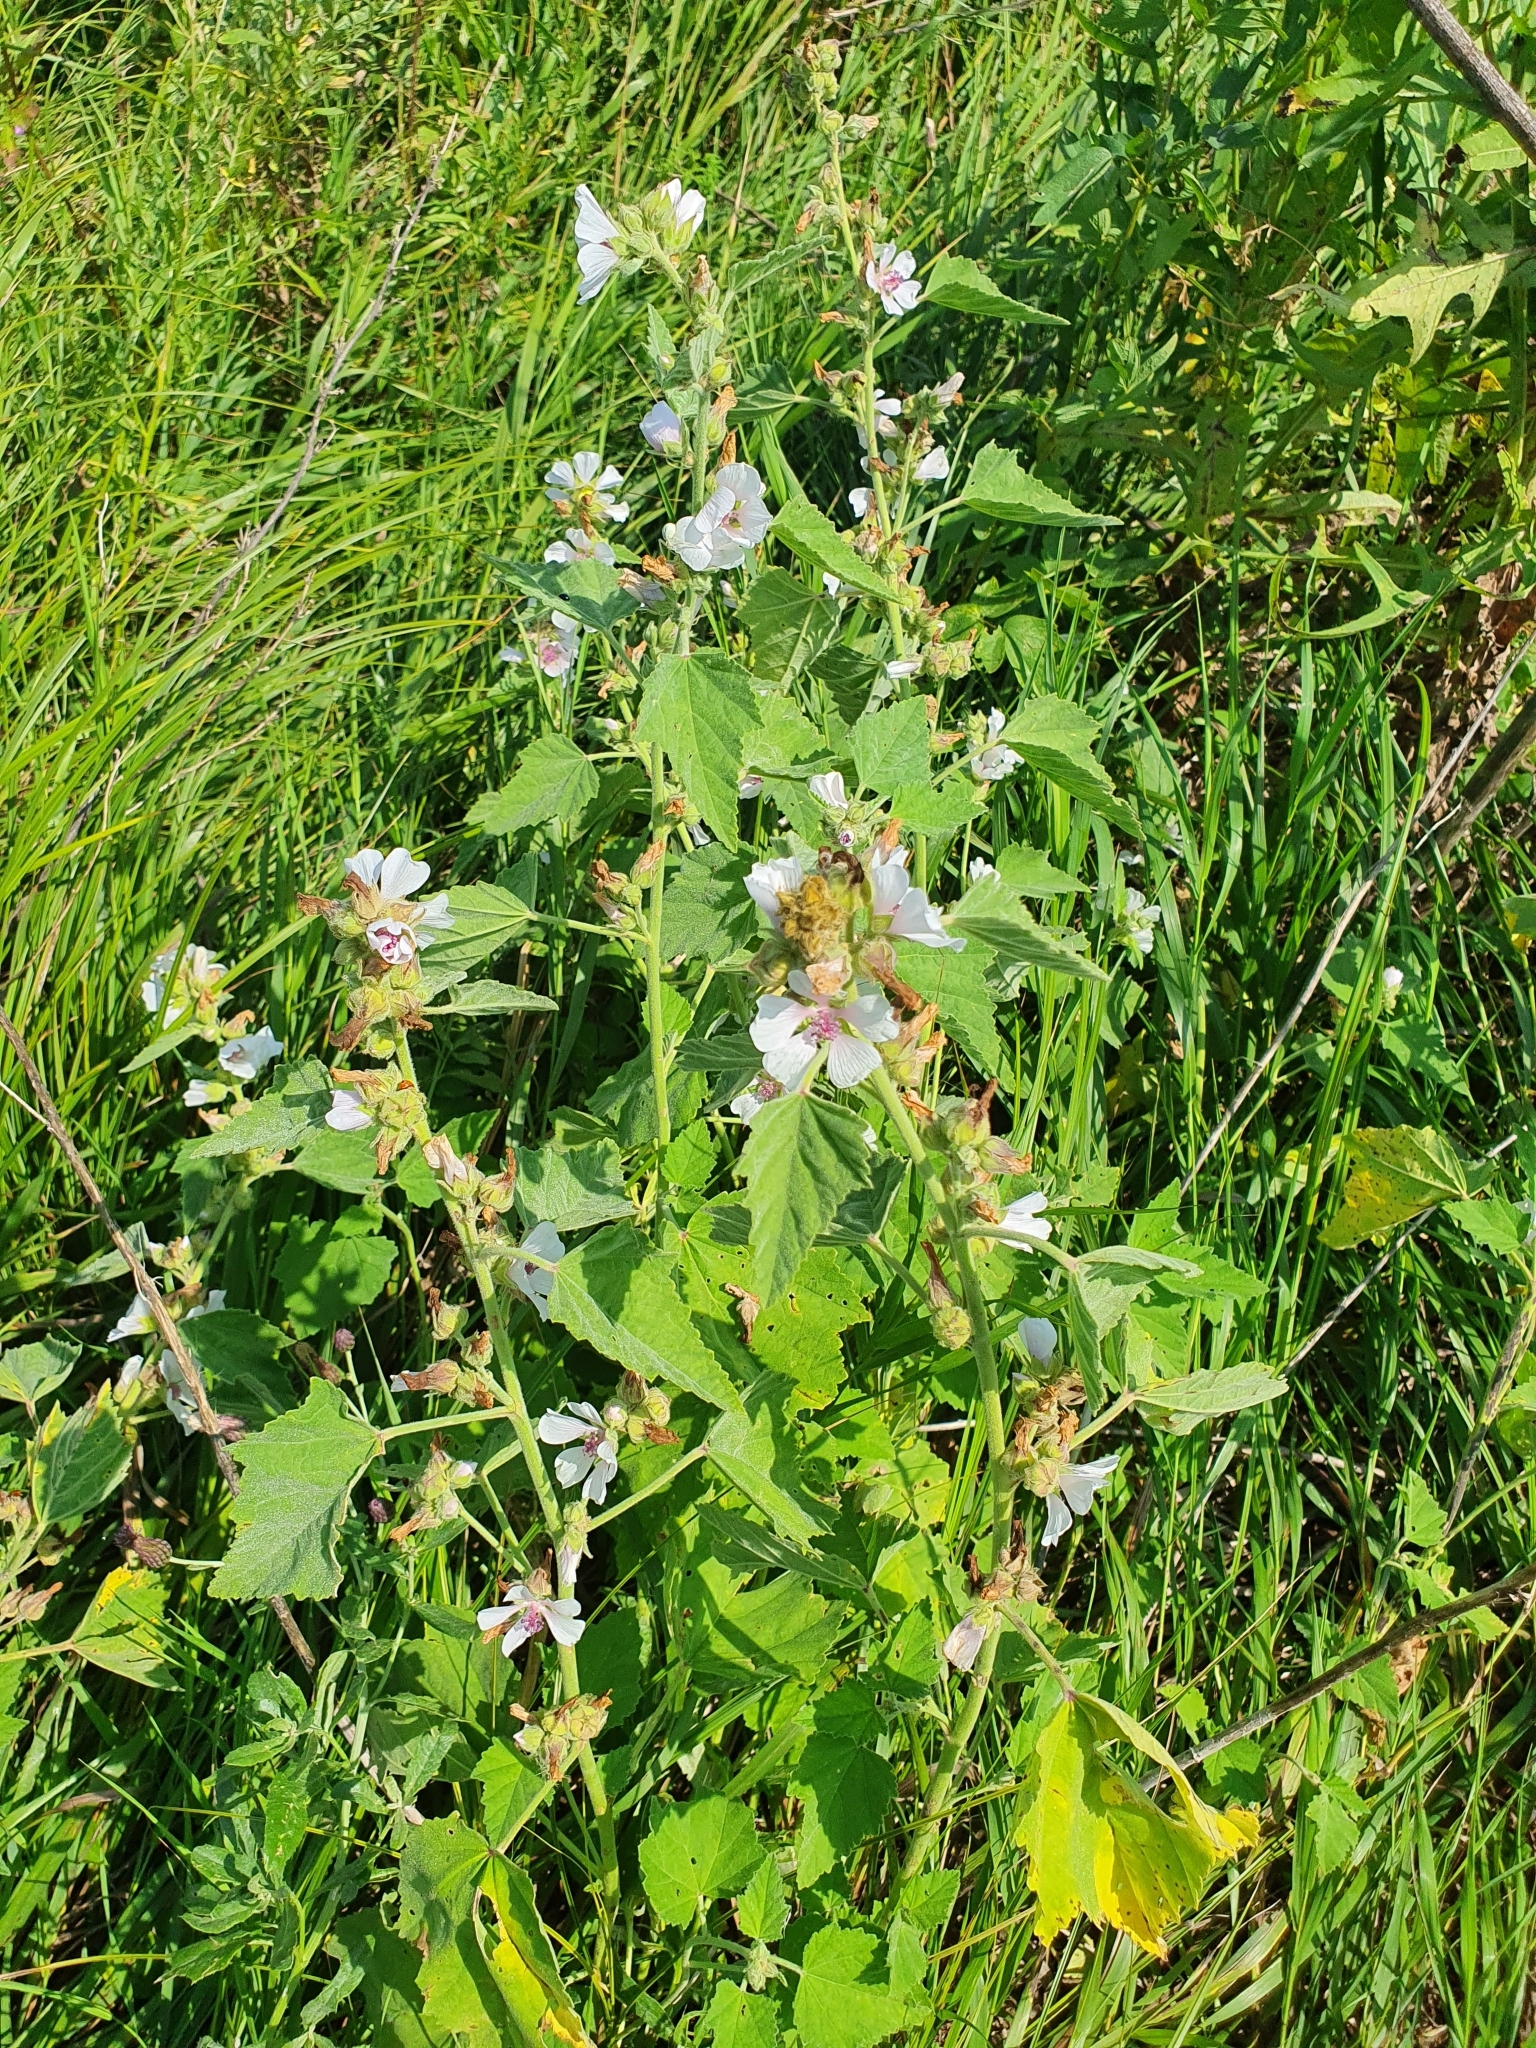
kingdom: Plantae
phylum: Tracheophyta
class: Magnoliopsida
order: Malvales
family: Malvaceae
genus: Althaea
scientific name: Althaea officinalis
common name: Marsh-mallow
